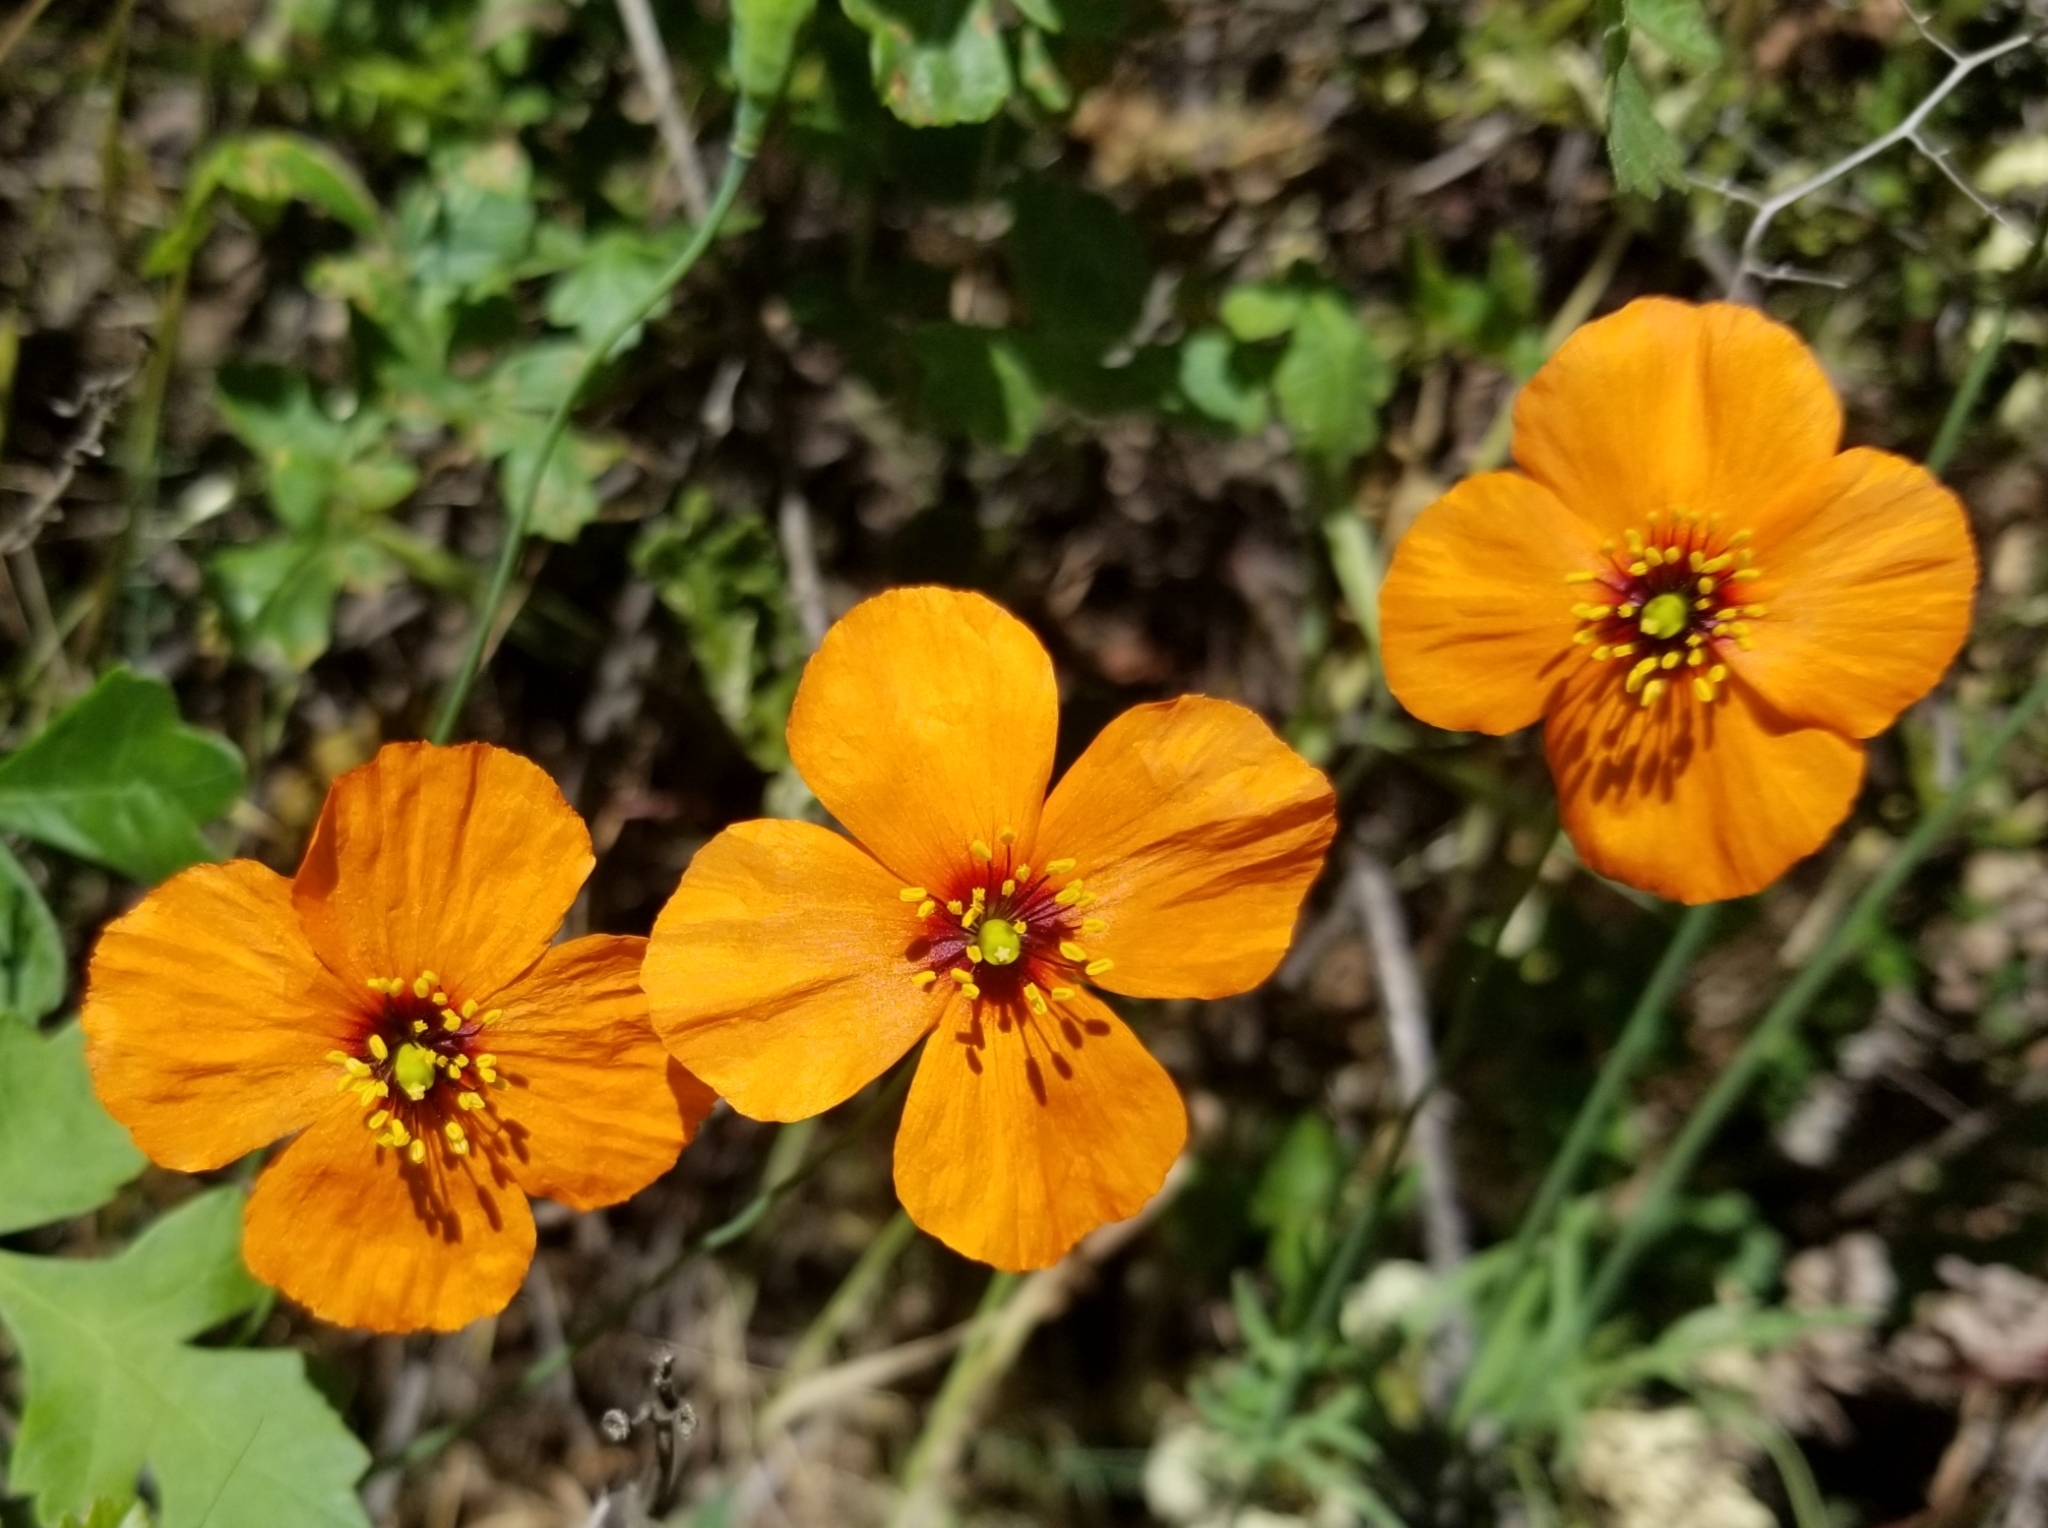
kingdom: Plantae
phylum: Tracheophyta
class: Magnoliopsida
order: Ranunculales
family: Papaveraceae
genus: Stylomecon
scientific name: Stylomecon heterophylla
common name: Flaming-poppy
